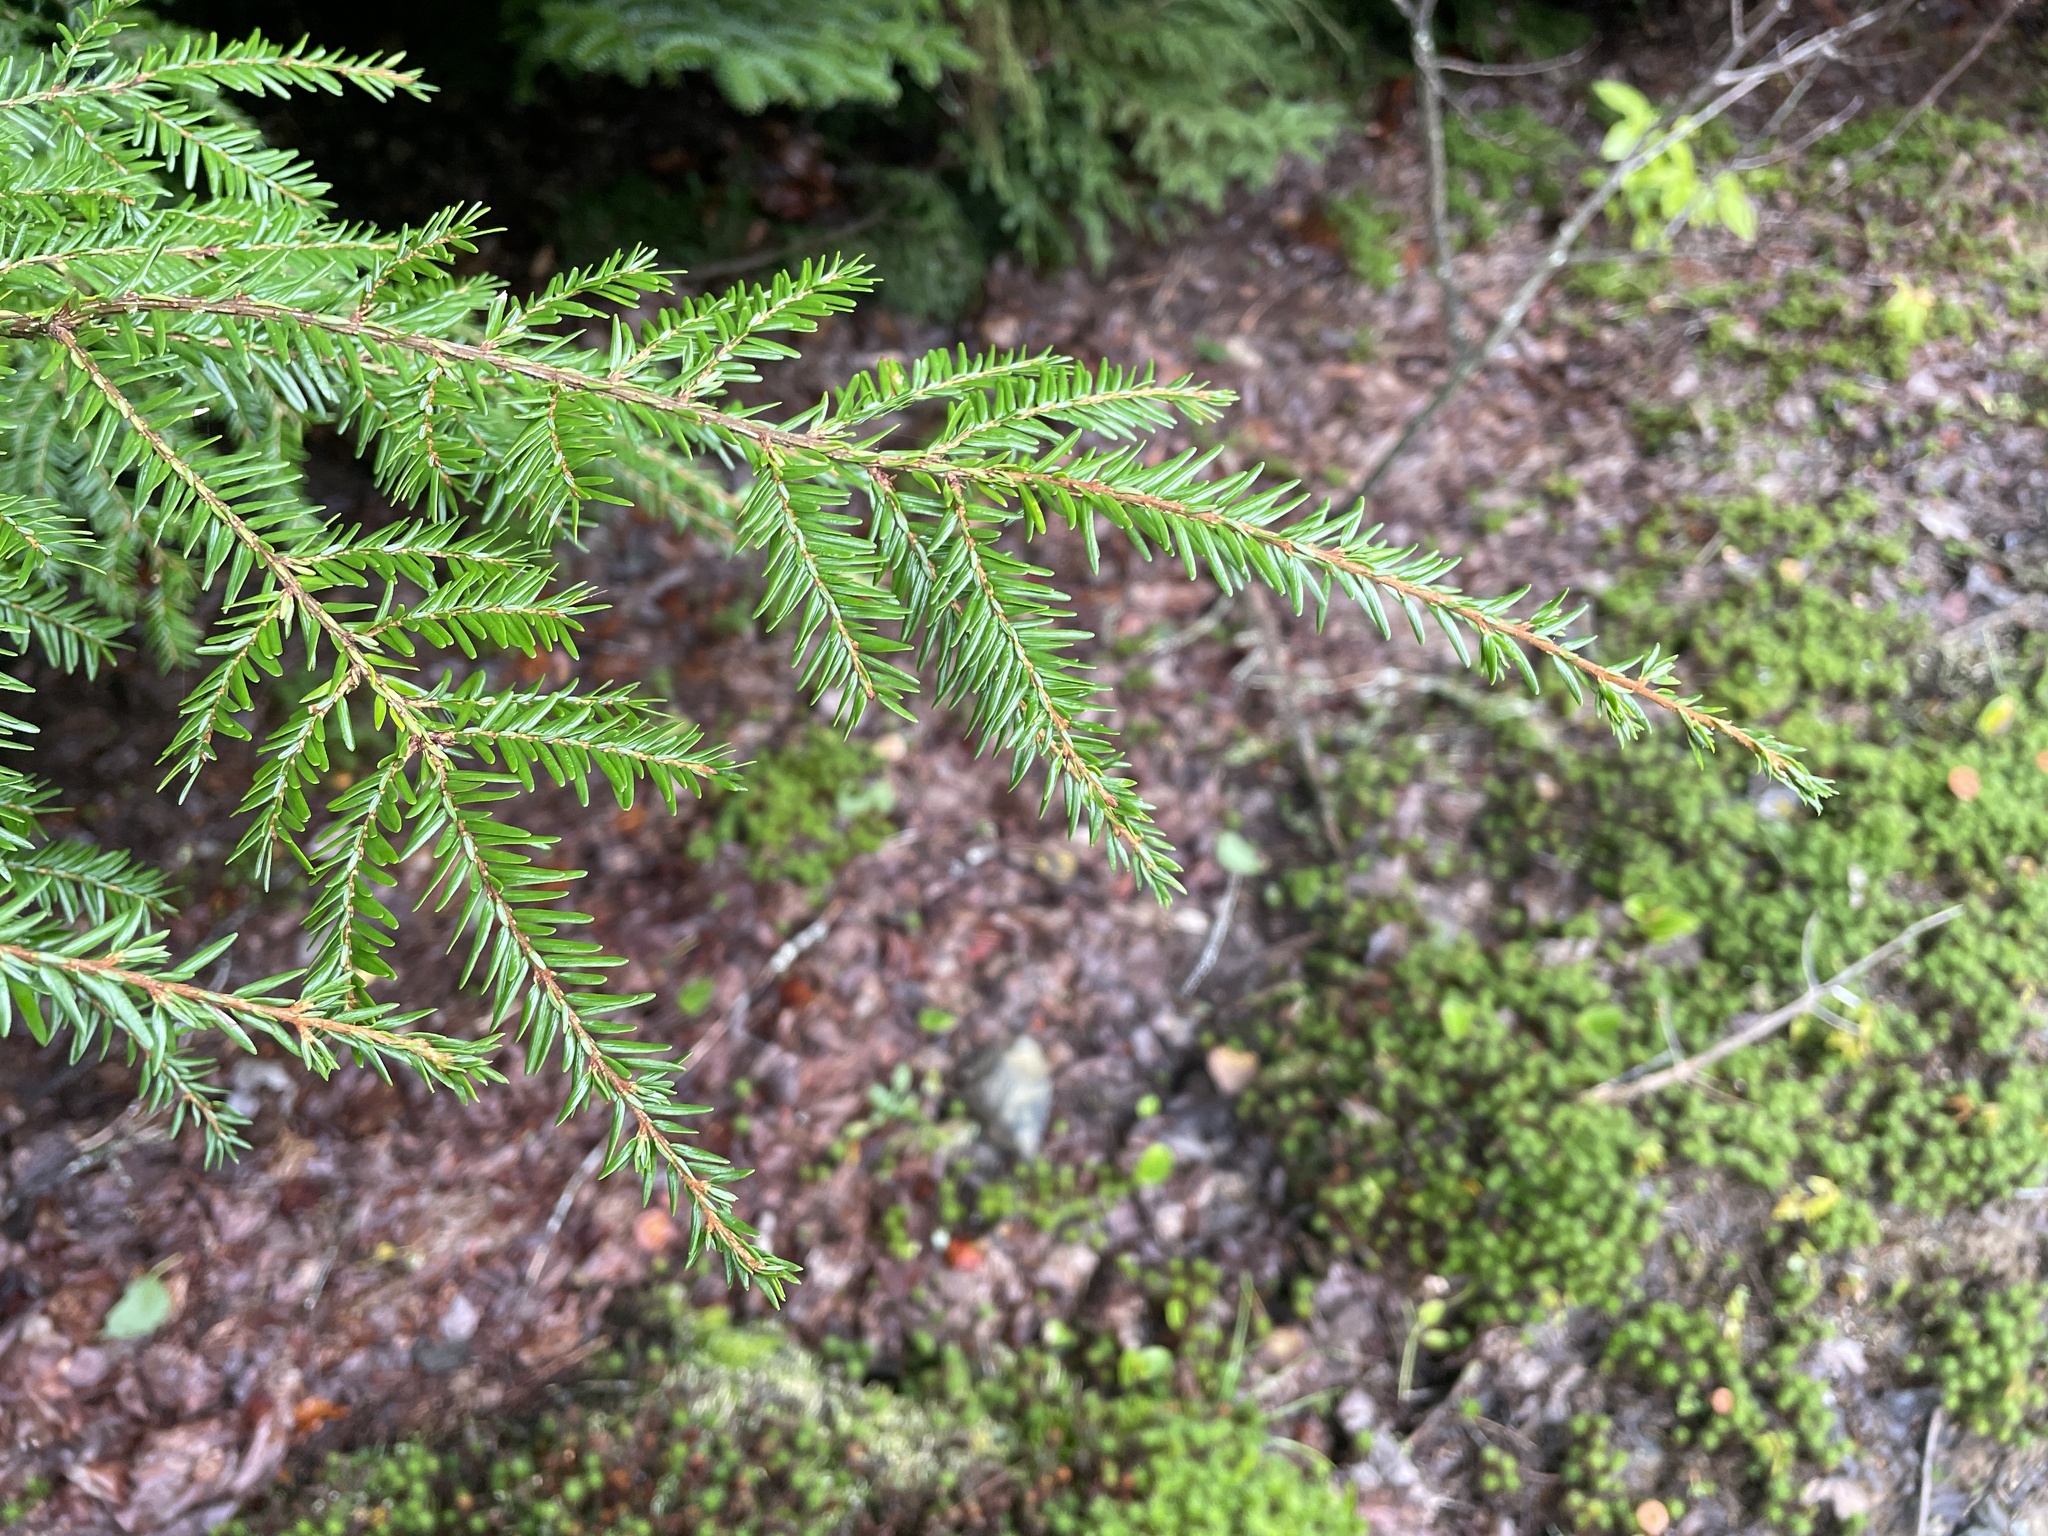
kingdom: Plantae
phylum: Tracheophyta
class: Pinopsida
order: Pinales
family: Pinaceae
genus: Tsuga
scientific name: Tsuga canadensis
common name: Eastern hemlock
